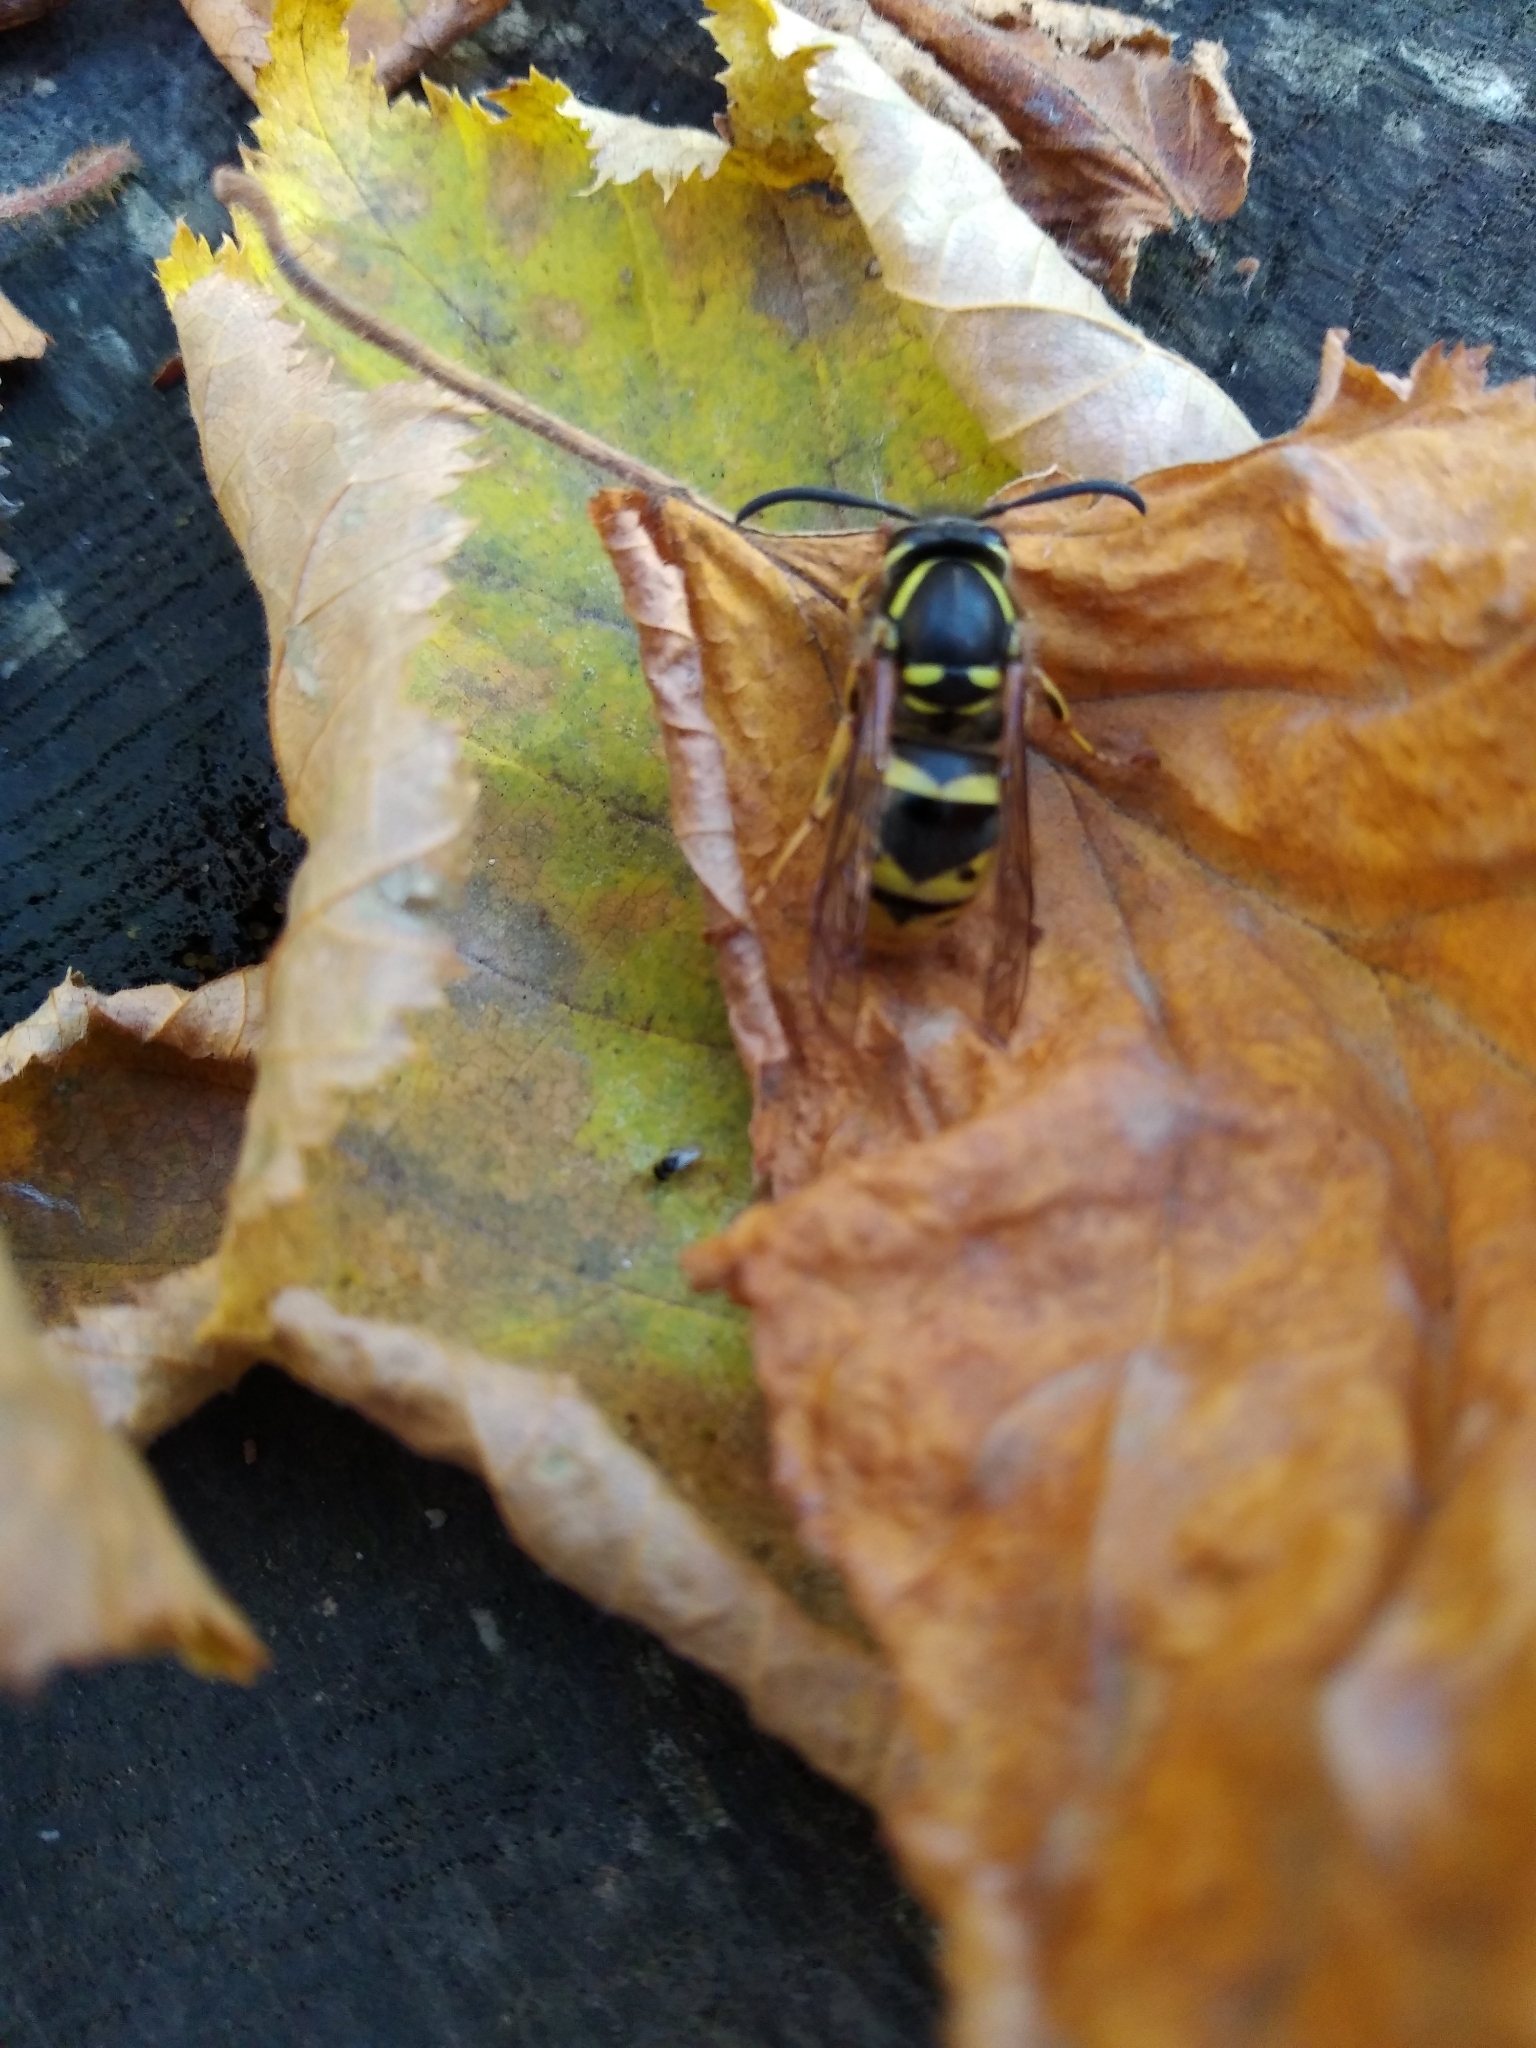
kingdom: Animalia
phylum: Arthropoda
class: Insecta
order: Hymenoptera
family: Vespidae
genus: Vespula
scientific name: Vespula vulgaris
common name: Common wasp
